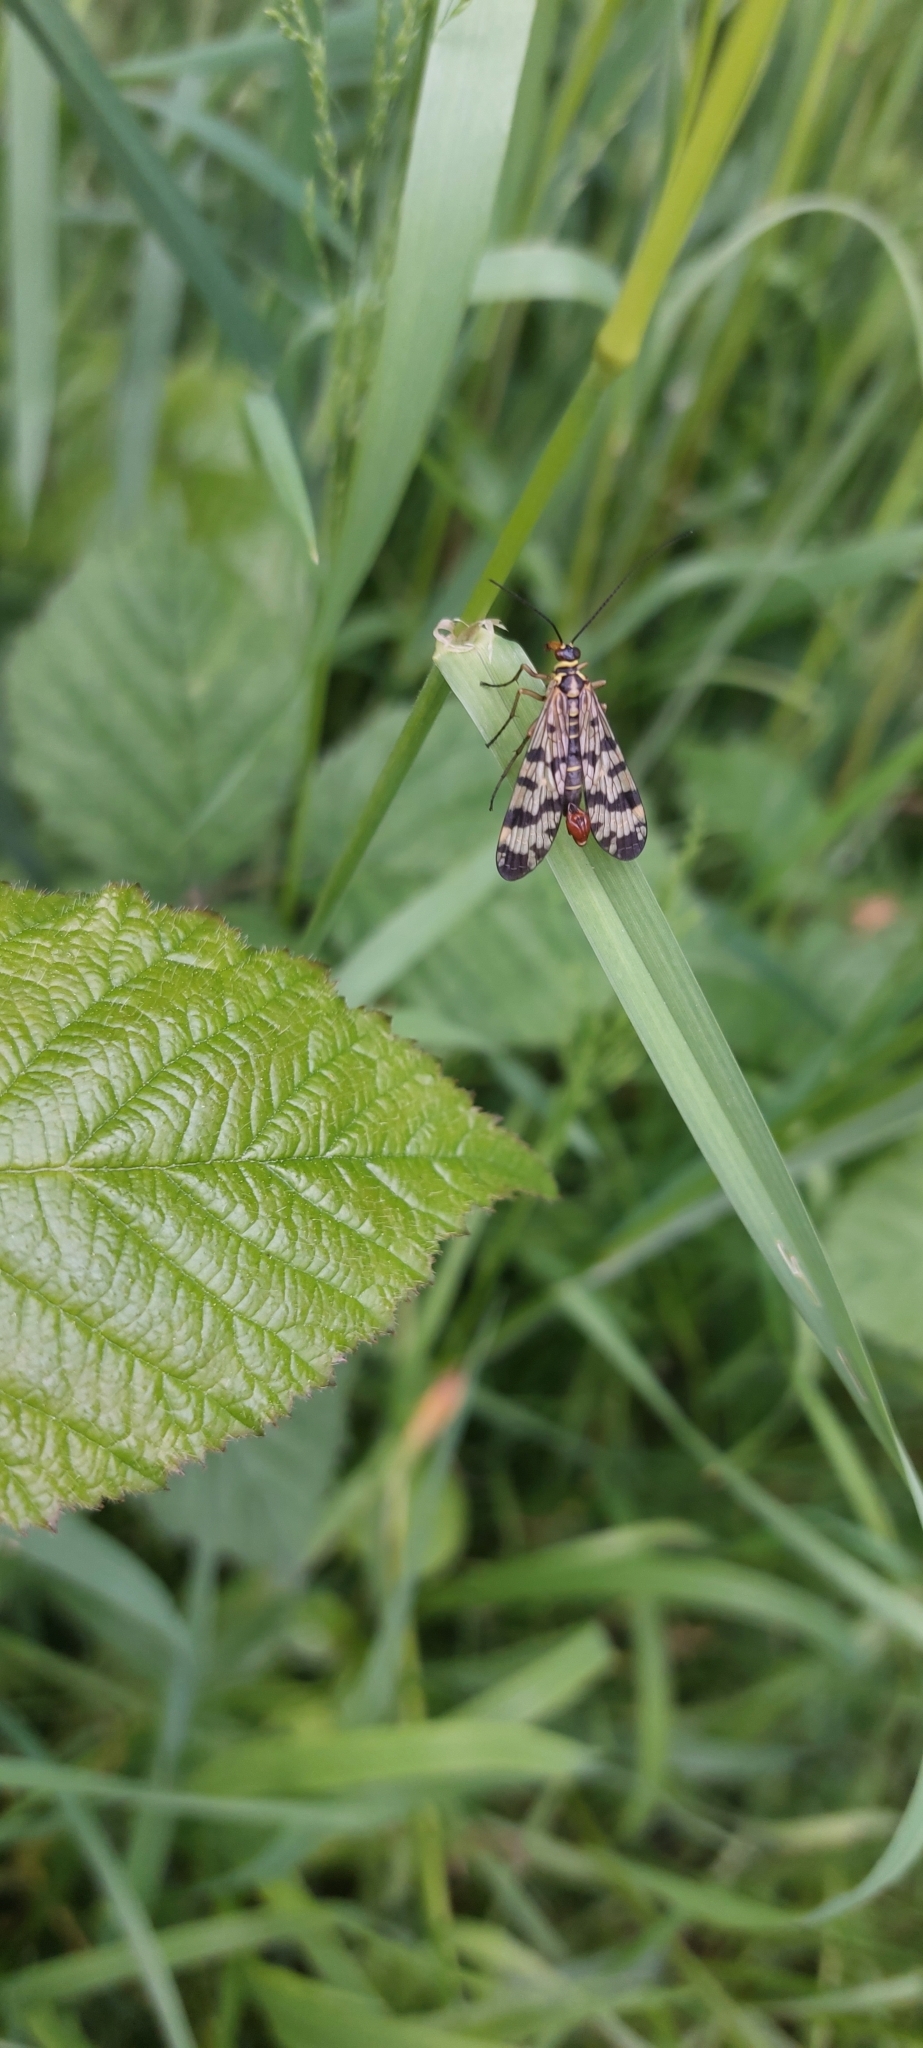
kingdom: Animalia
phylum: Arthropoda
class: Insecta
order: Mecoptera
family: Panorpidae
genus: Panorpa
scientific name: Panorpa communis
